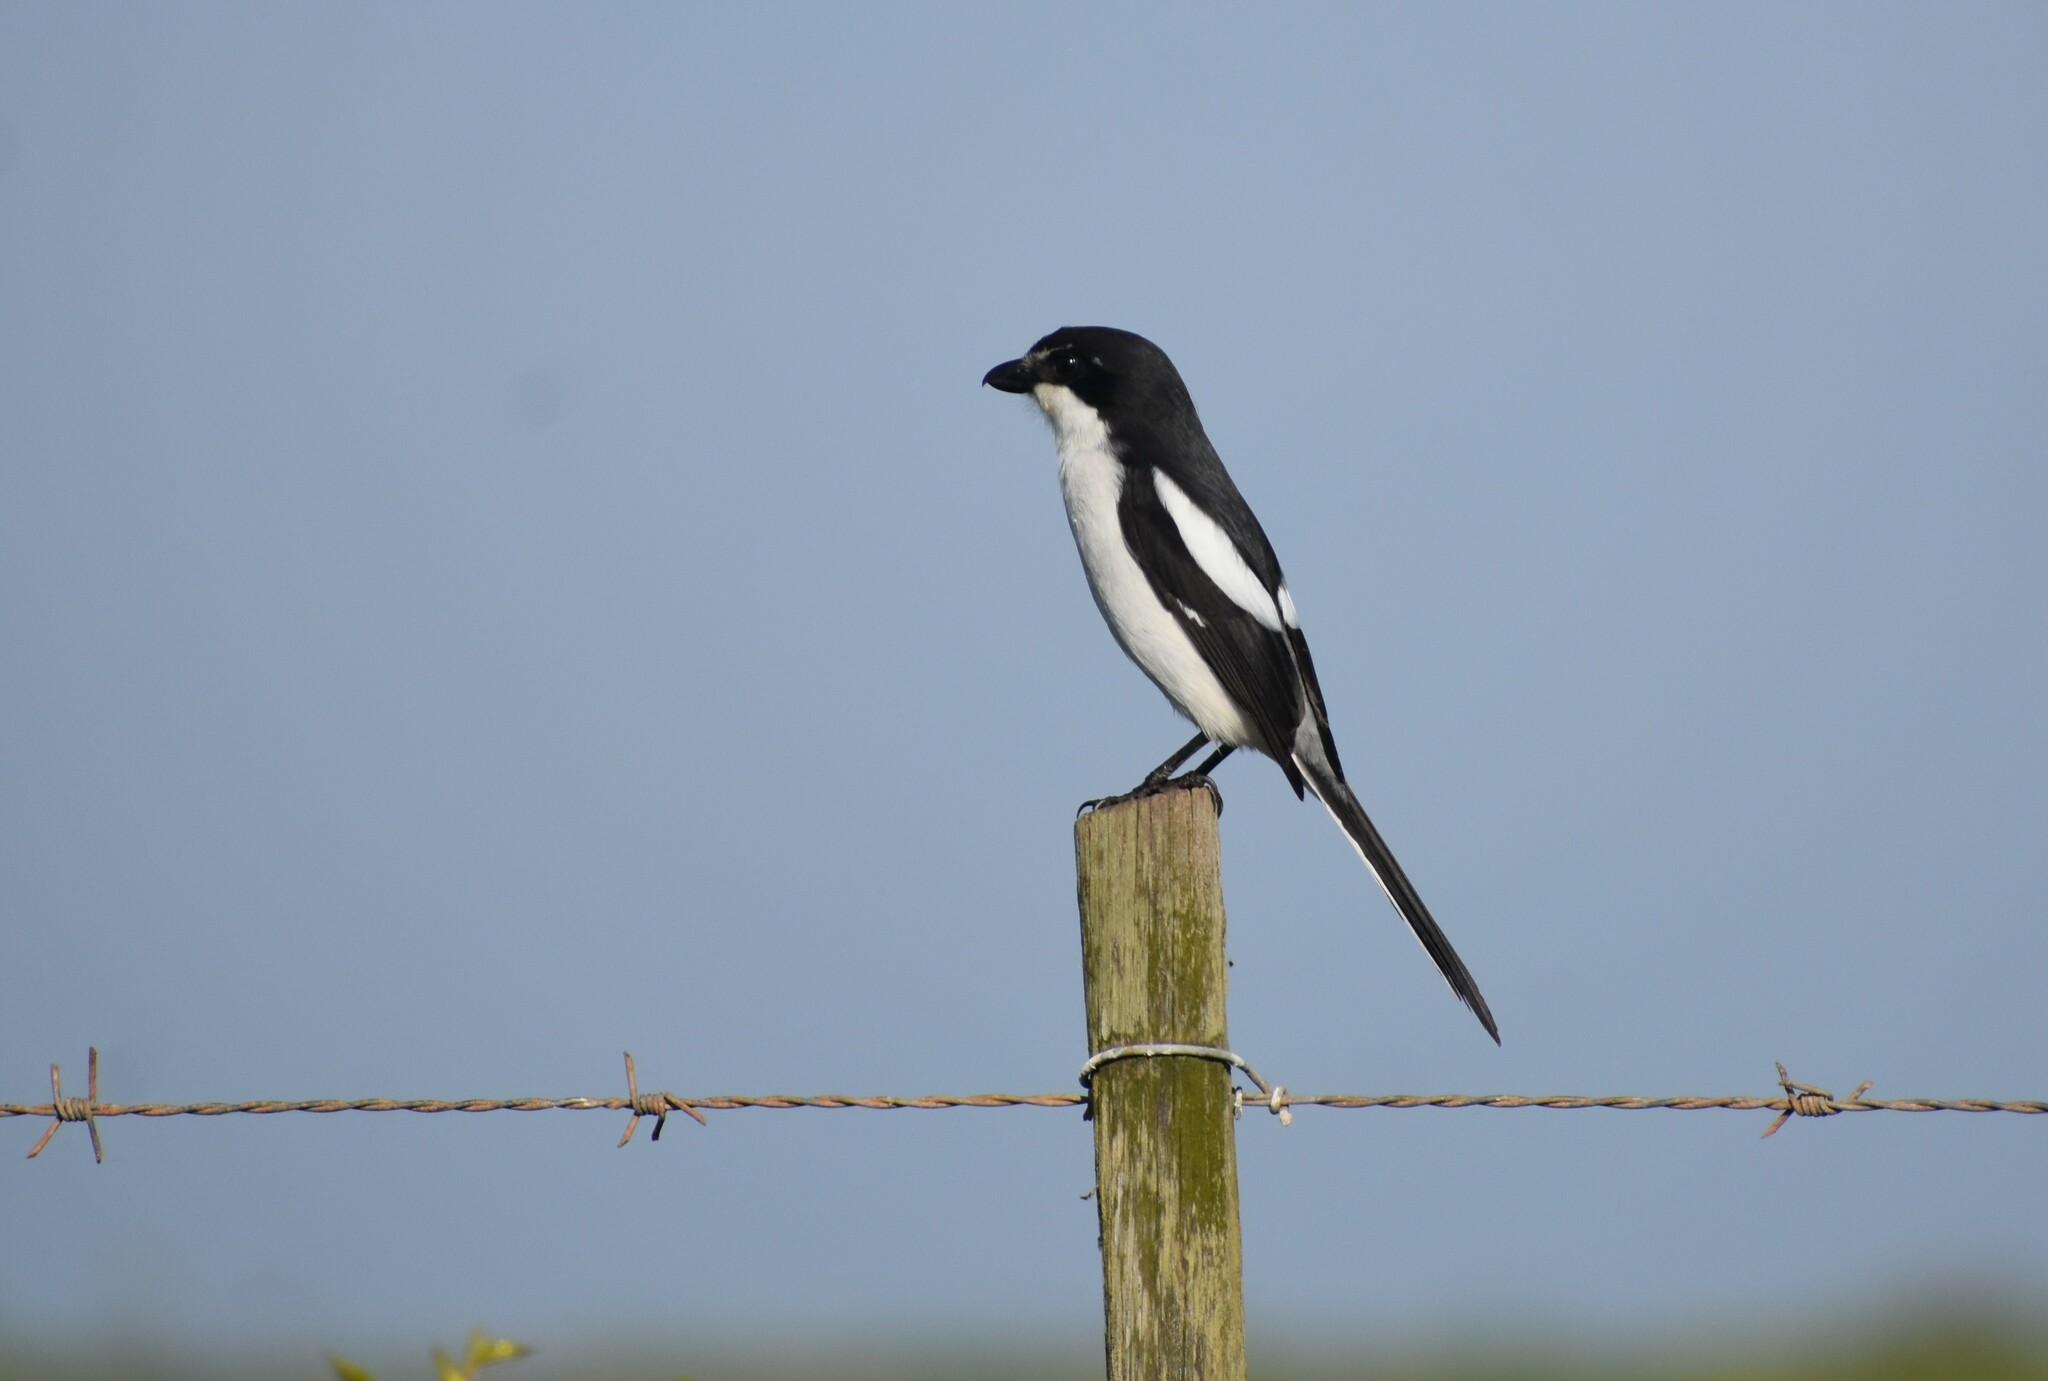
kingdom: Animalia
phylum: Chordata
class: Aves
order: Passeriformes
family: Laniidae
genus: Lanius
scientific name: Lanius collaris
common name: Southern fiscal
